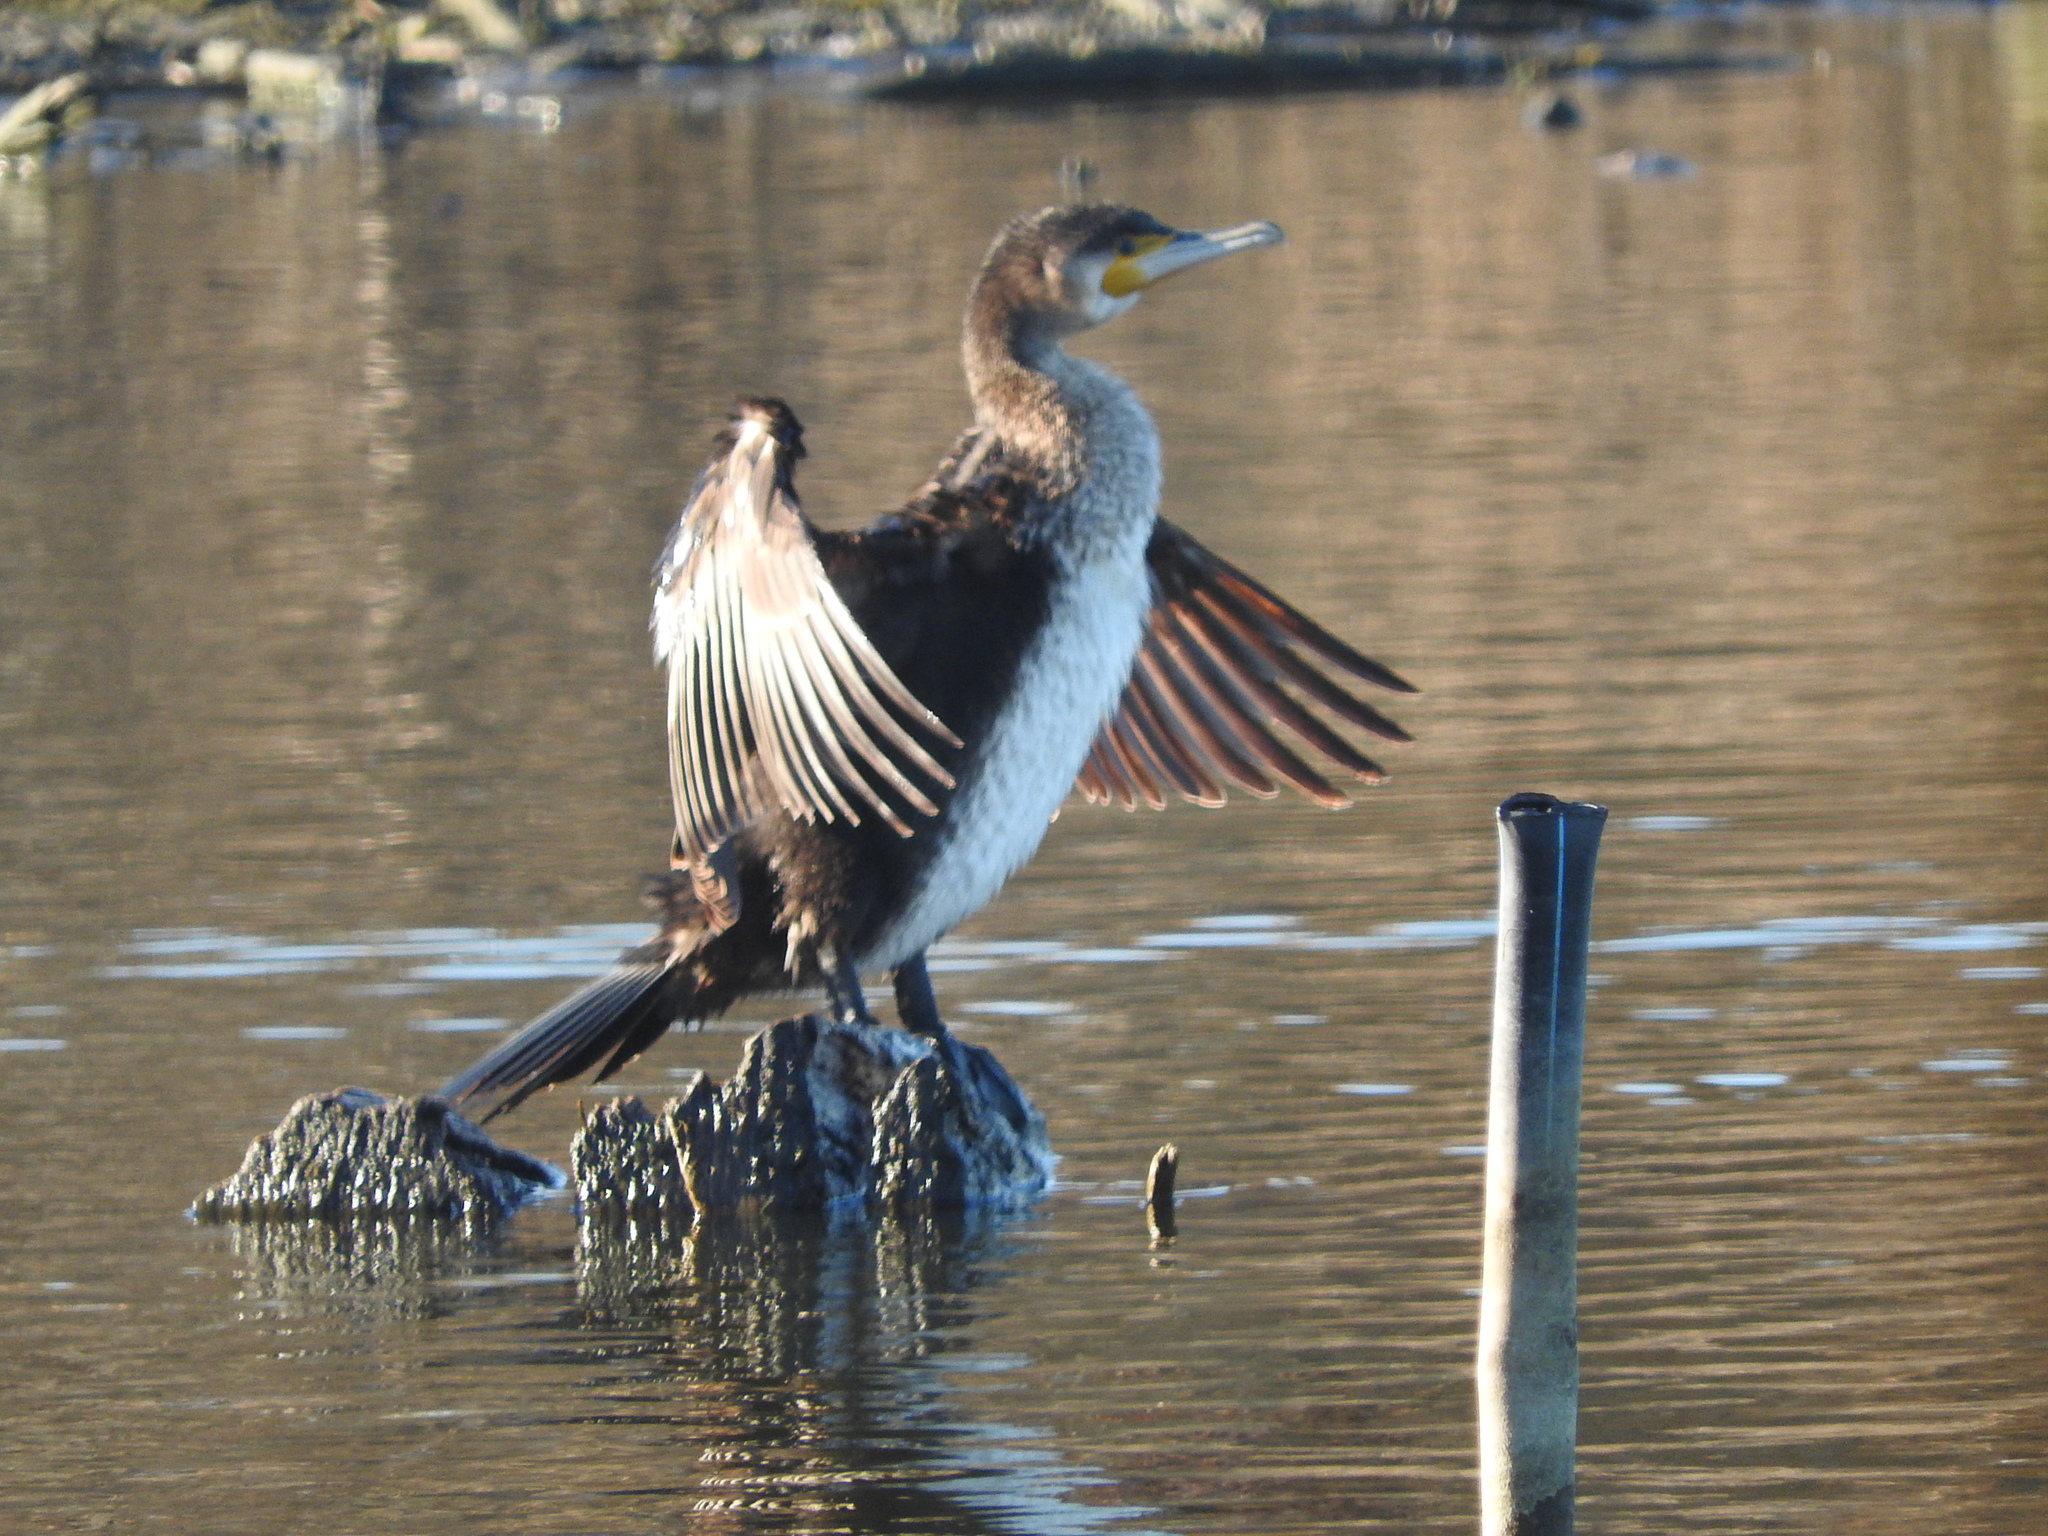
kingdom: Animalia
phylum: Chordata
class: Aves
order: Suliformes
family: Phalacrocoracidae
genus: Phalacrocorax
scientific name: Phalacrocorax carbo
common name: Great cormorant
